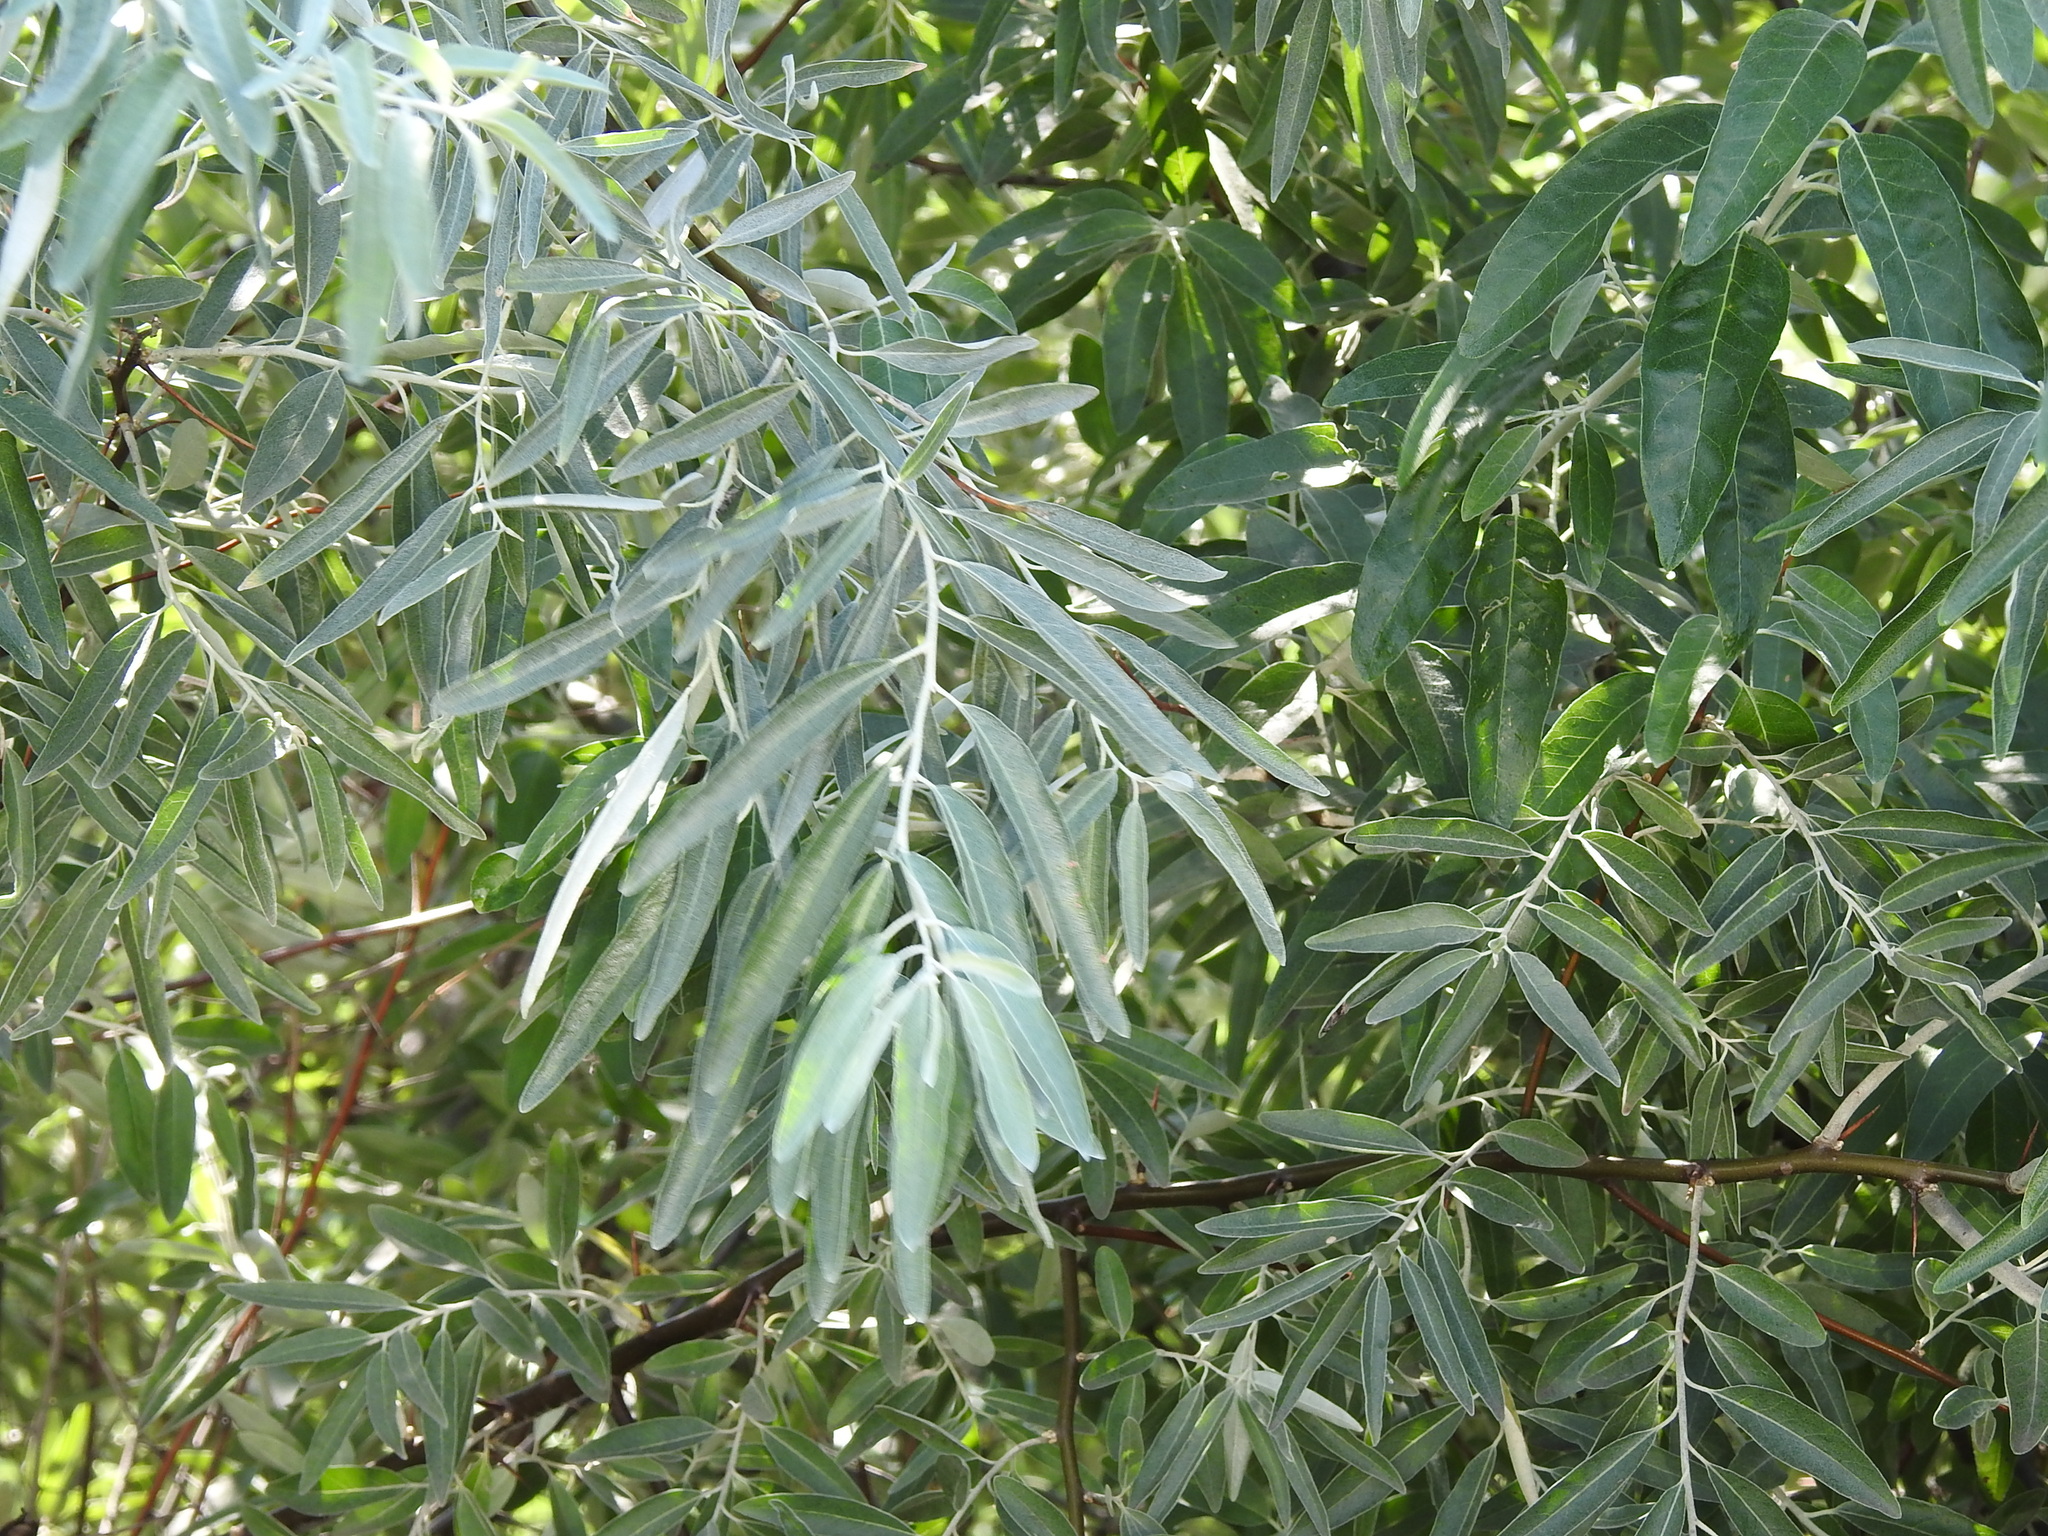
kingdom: Plantae
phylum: Tracheophyta
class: Magnoliopsida
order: Rosales
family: Elaeagnaceae
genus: Elaeagnus
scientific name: Elaeagnus angustifolia
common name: Russian olive
